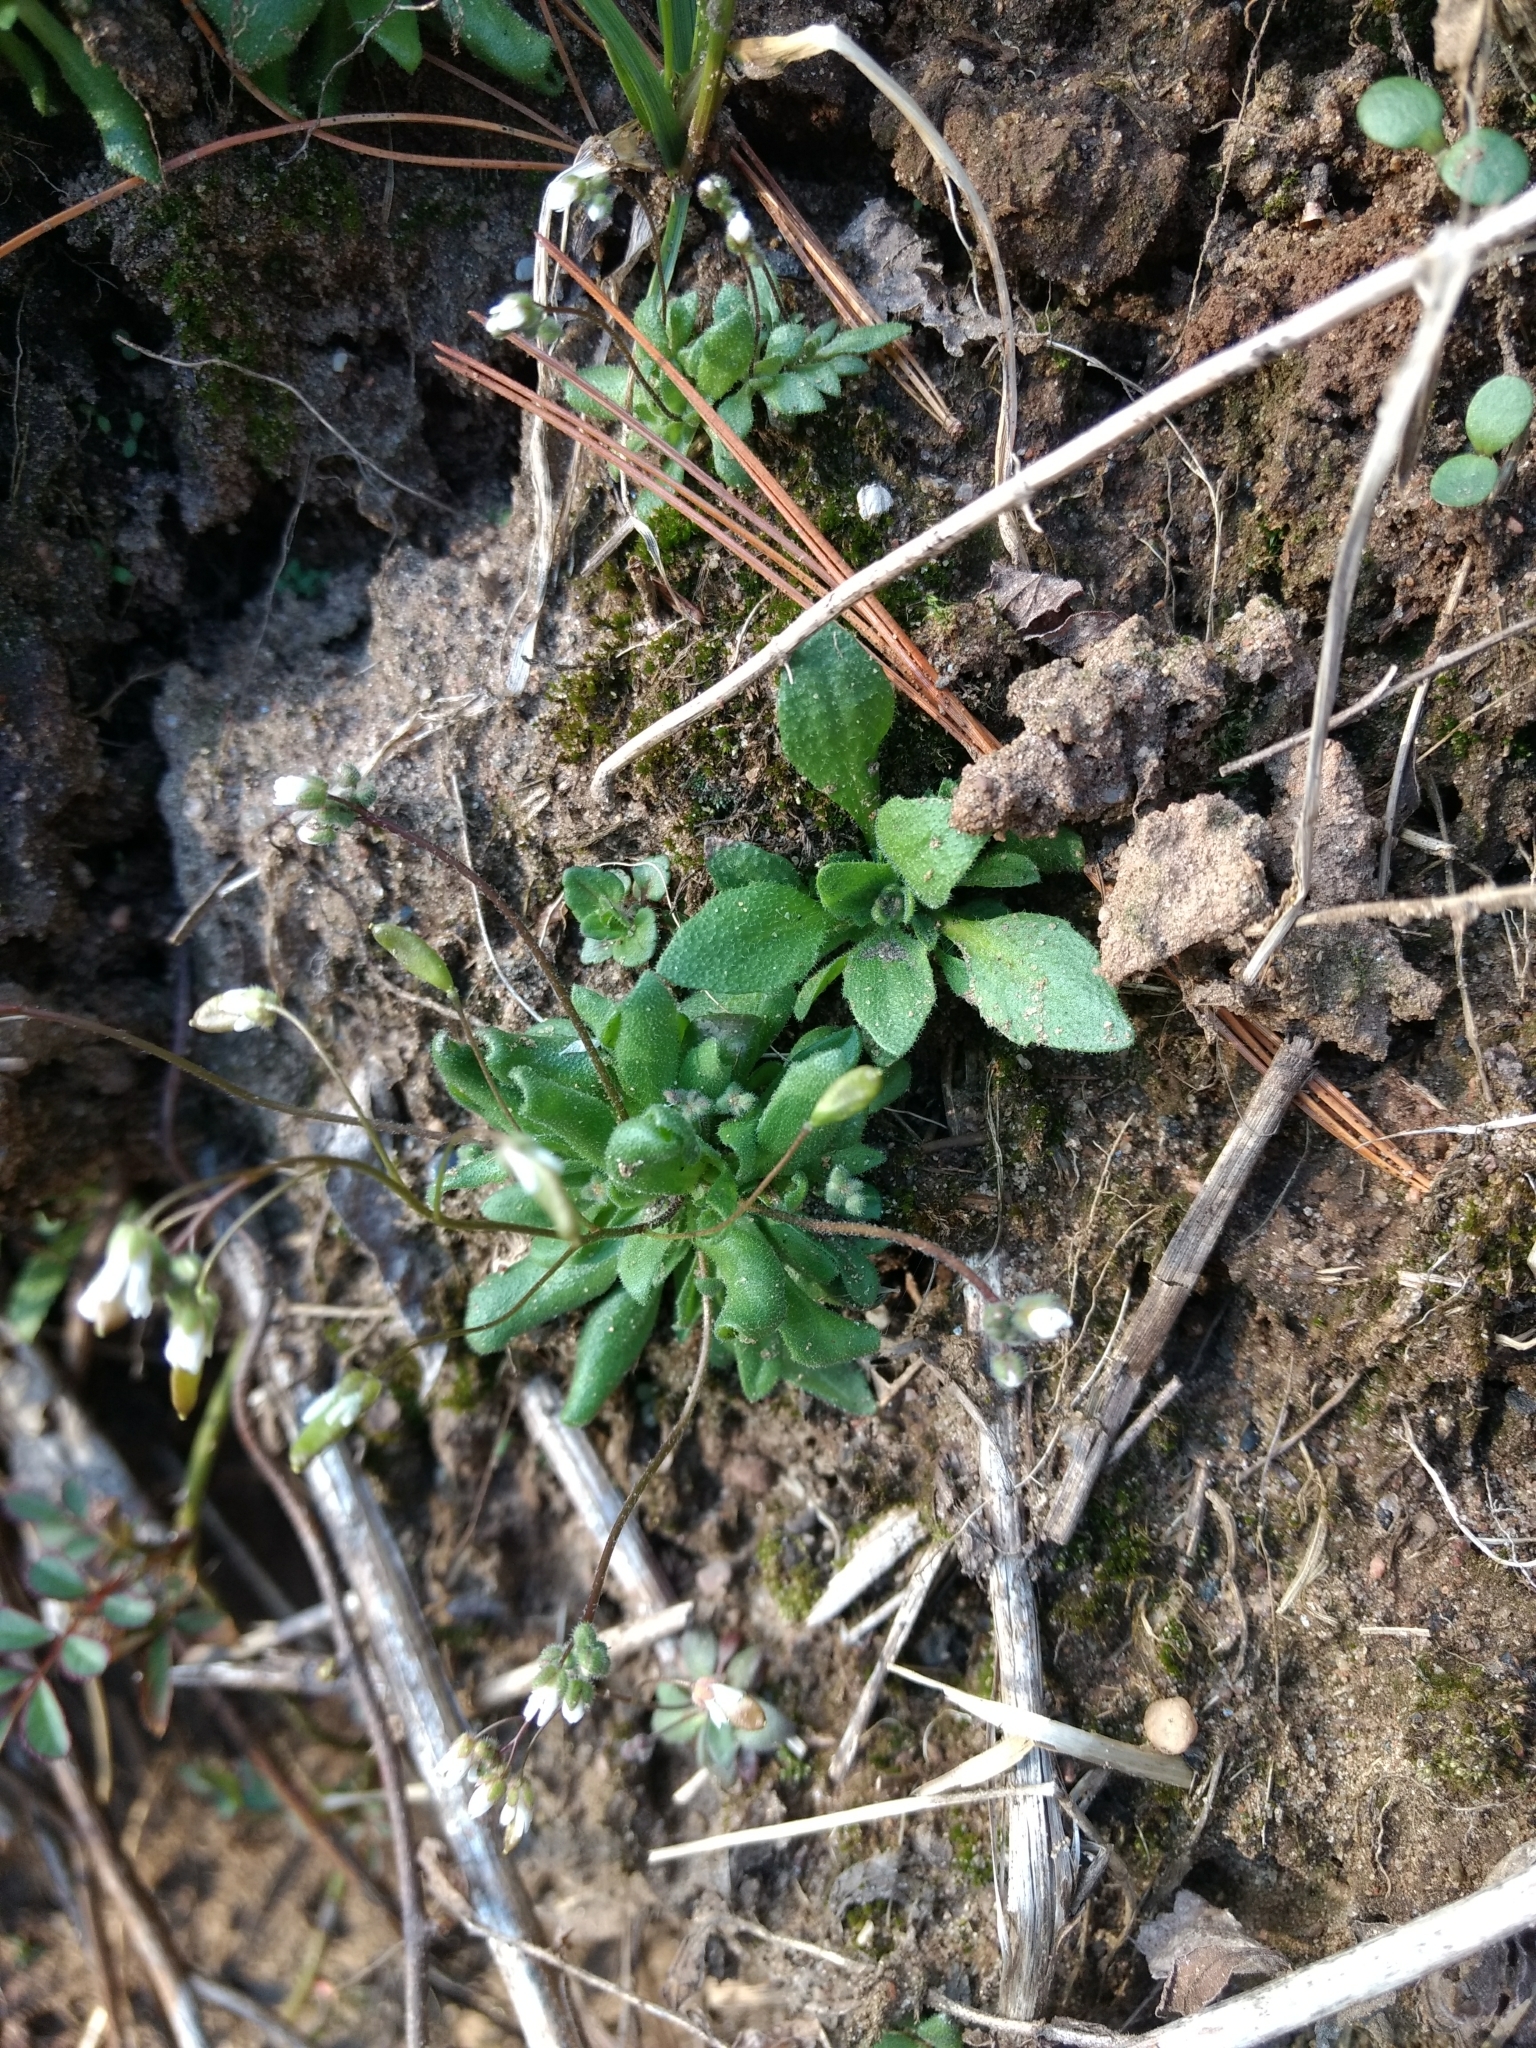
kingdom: Plantae
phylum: Tracheophyta
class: Magnoliopsida
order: Brassicales
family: Brassicaceae
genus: Draba
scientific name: Draba verna
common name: Spring draba
